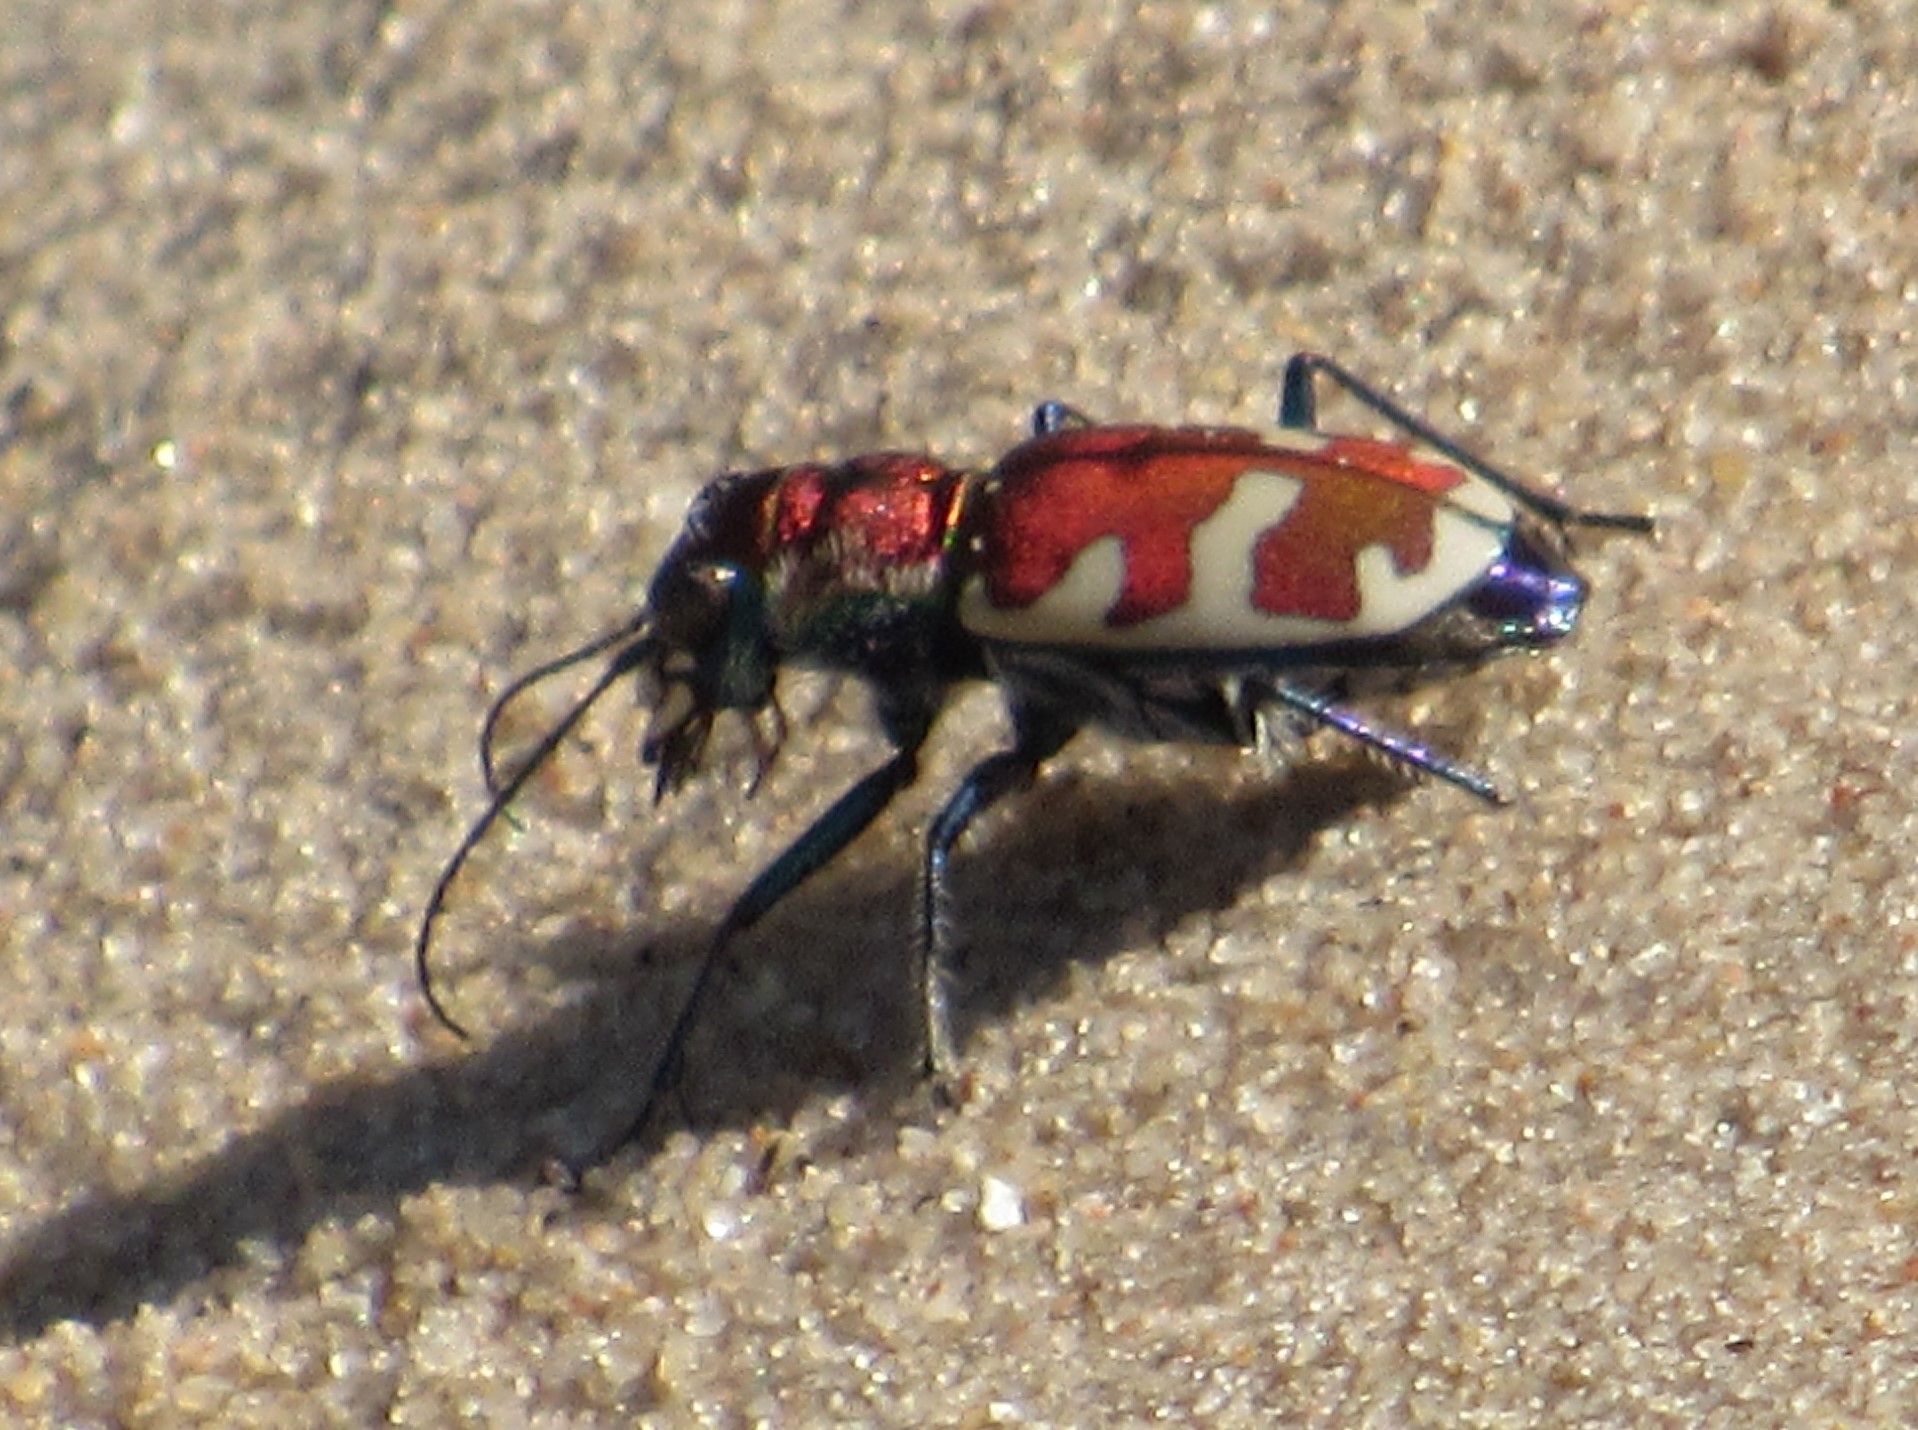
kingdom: Animalia
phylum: Arthropoda
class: Insecta
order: Coleoptera
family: Carabidae
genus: Cicindela
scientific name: Cicindela formosa
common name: Big sand tiger beetle
